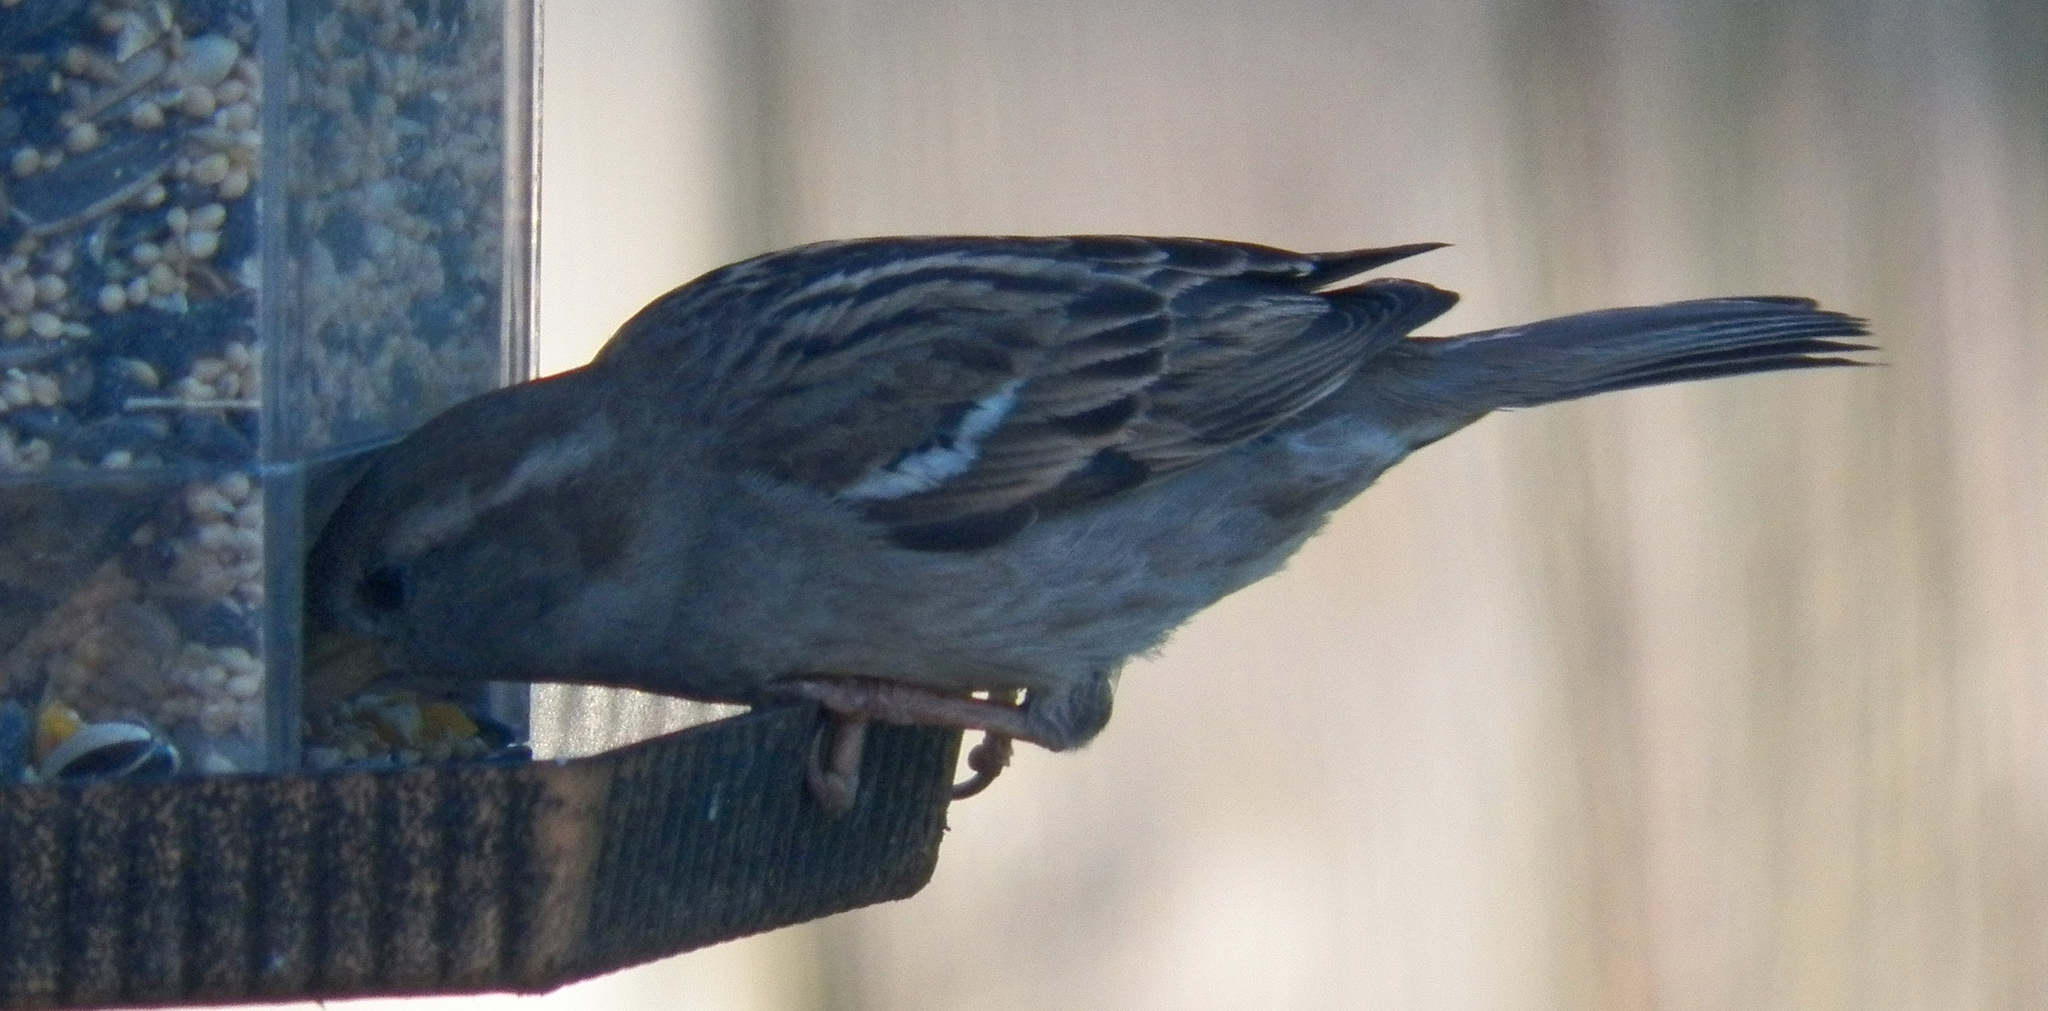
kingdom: Animalia
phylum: Chordata
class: Aves
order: Passeriformes
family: Passeridae
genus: Passer
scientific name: Passer domesticus
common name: House sparrow
